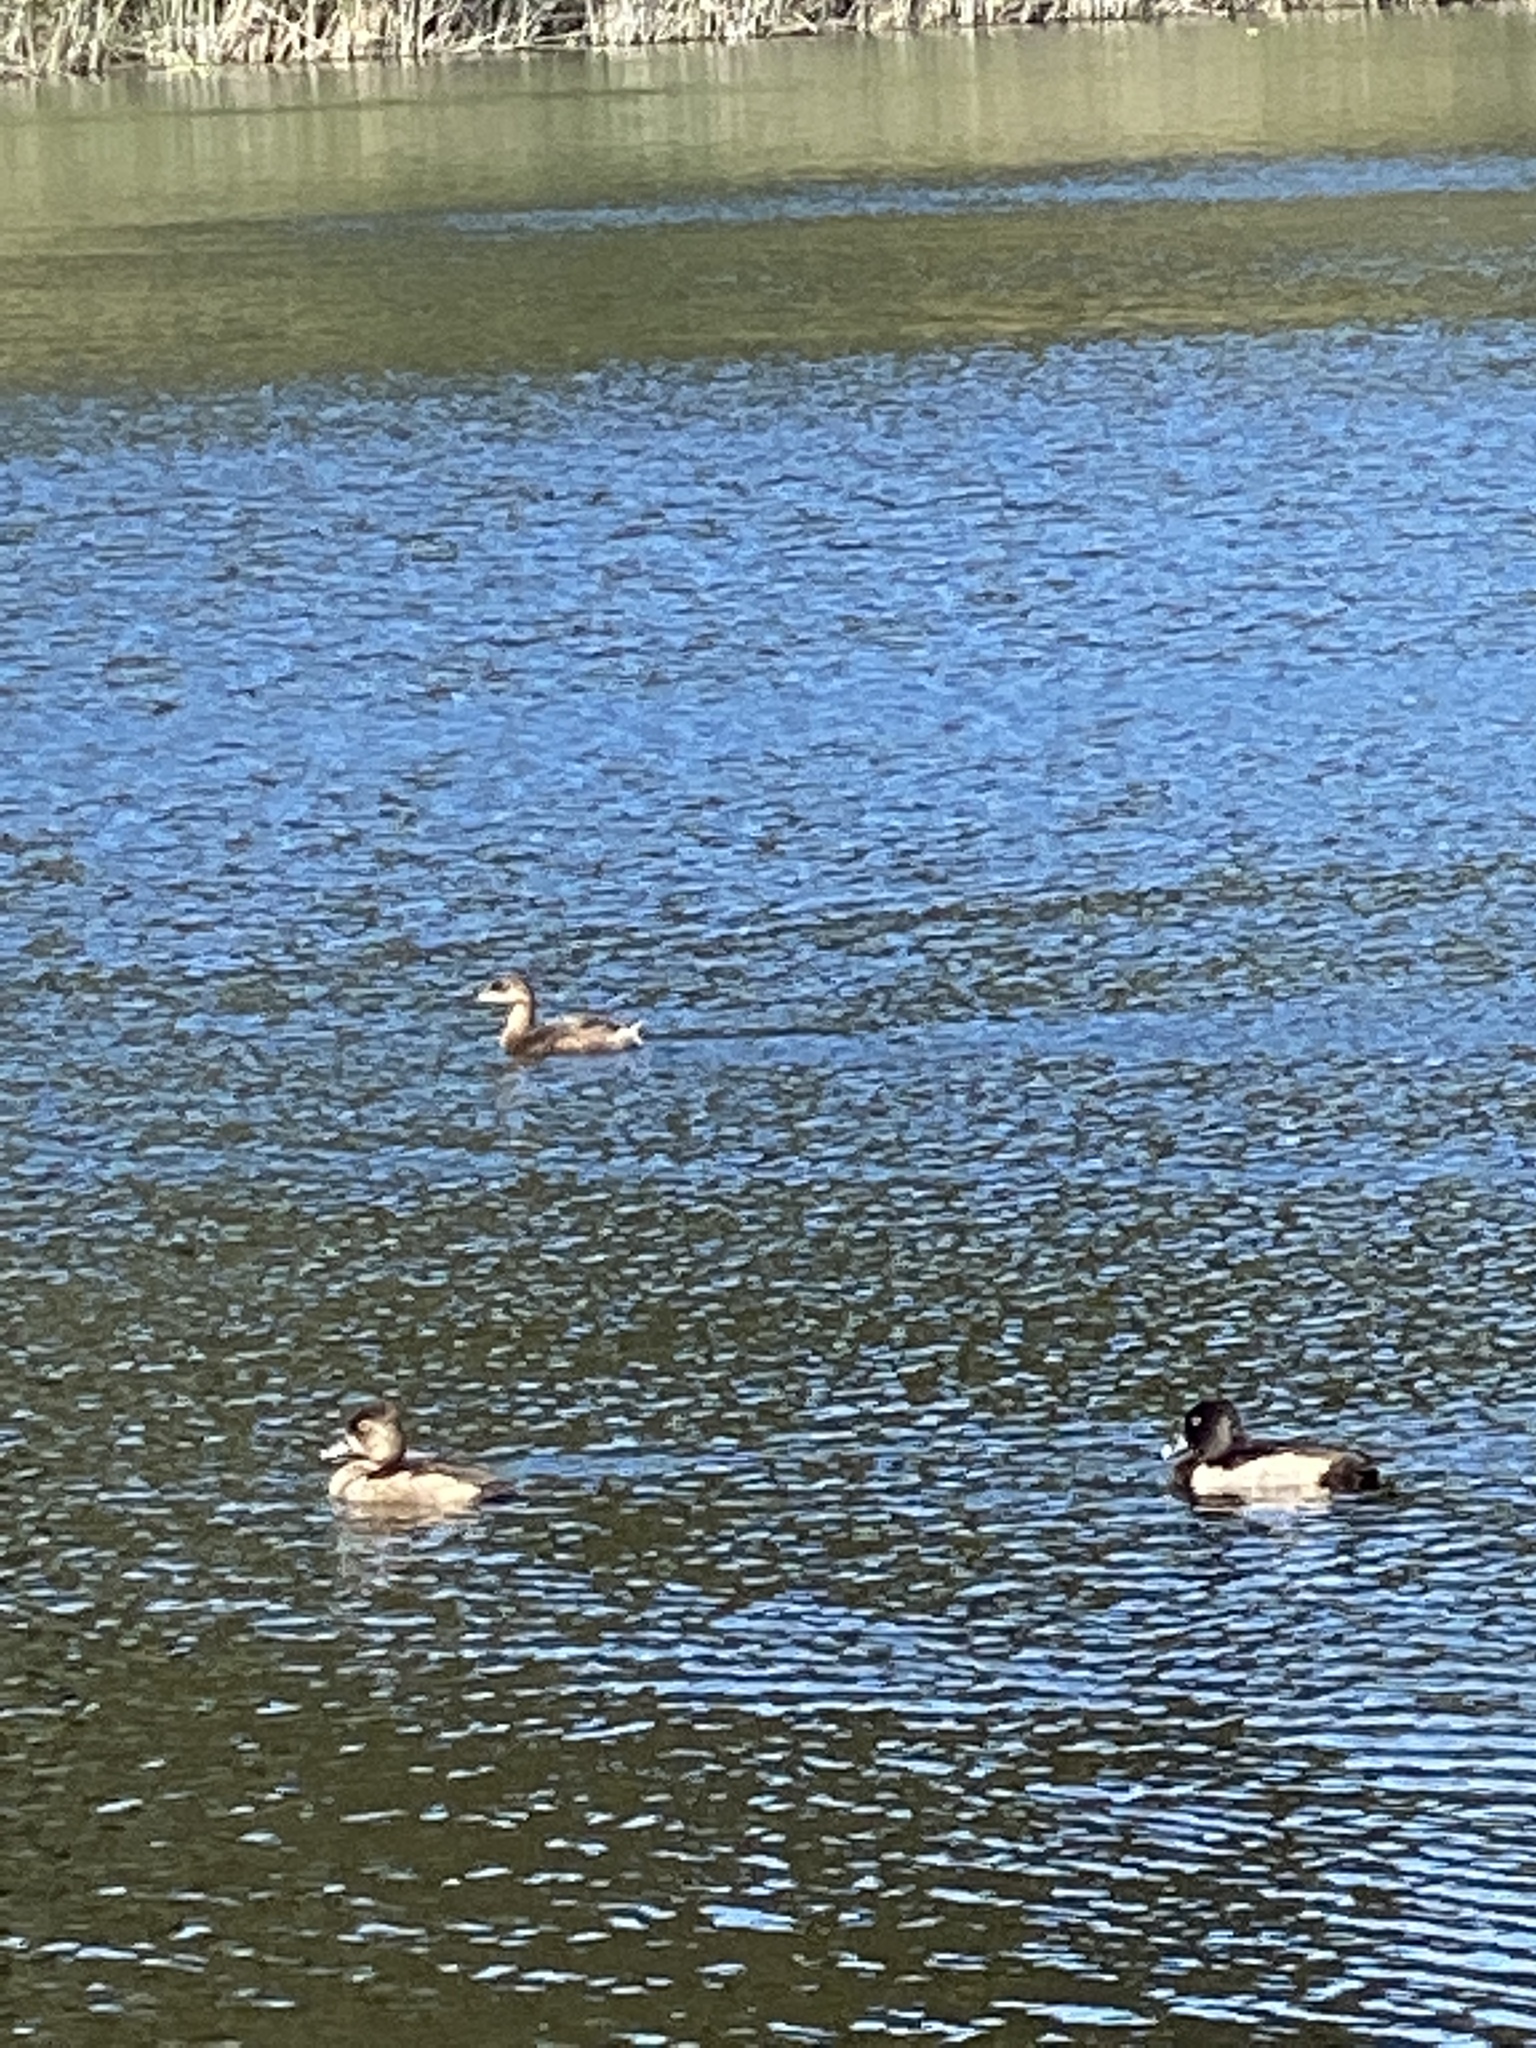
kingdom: Animalia
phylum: Chordata
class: Aves
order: Podicipediformes
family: Podicipedidae
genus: Podilymbus
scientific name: Podilymbus podiceps
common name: Pied-billed grebe
